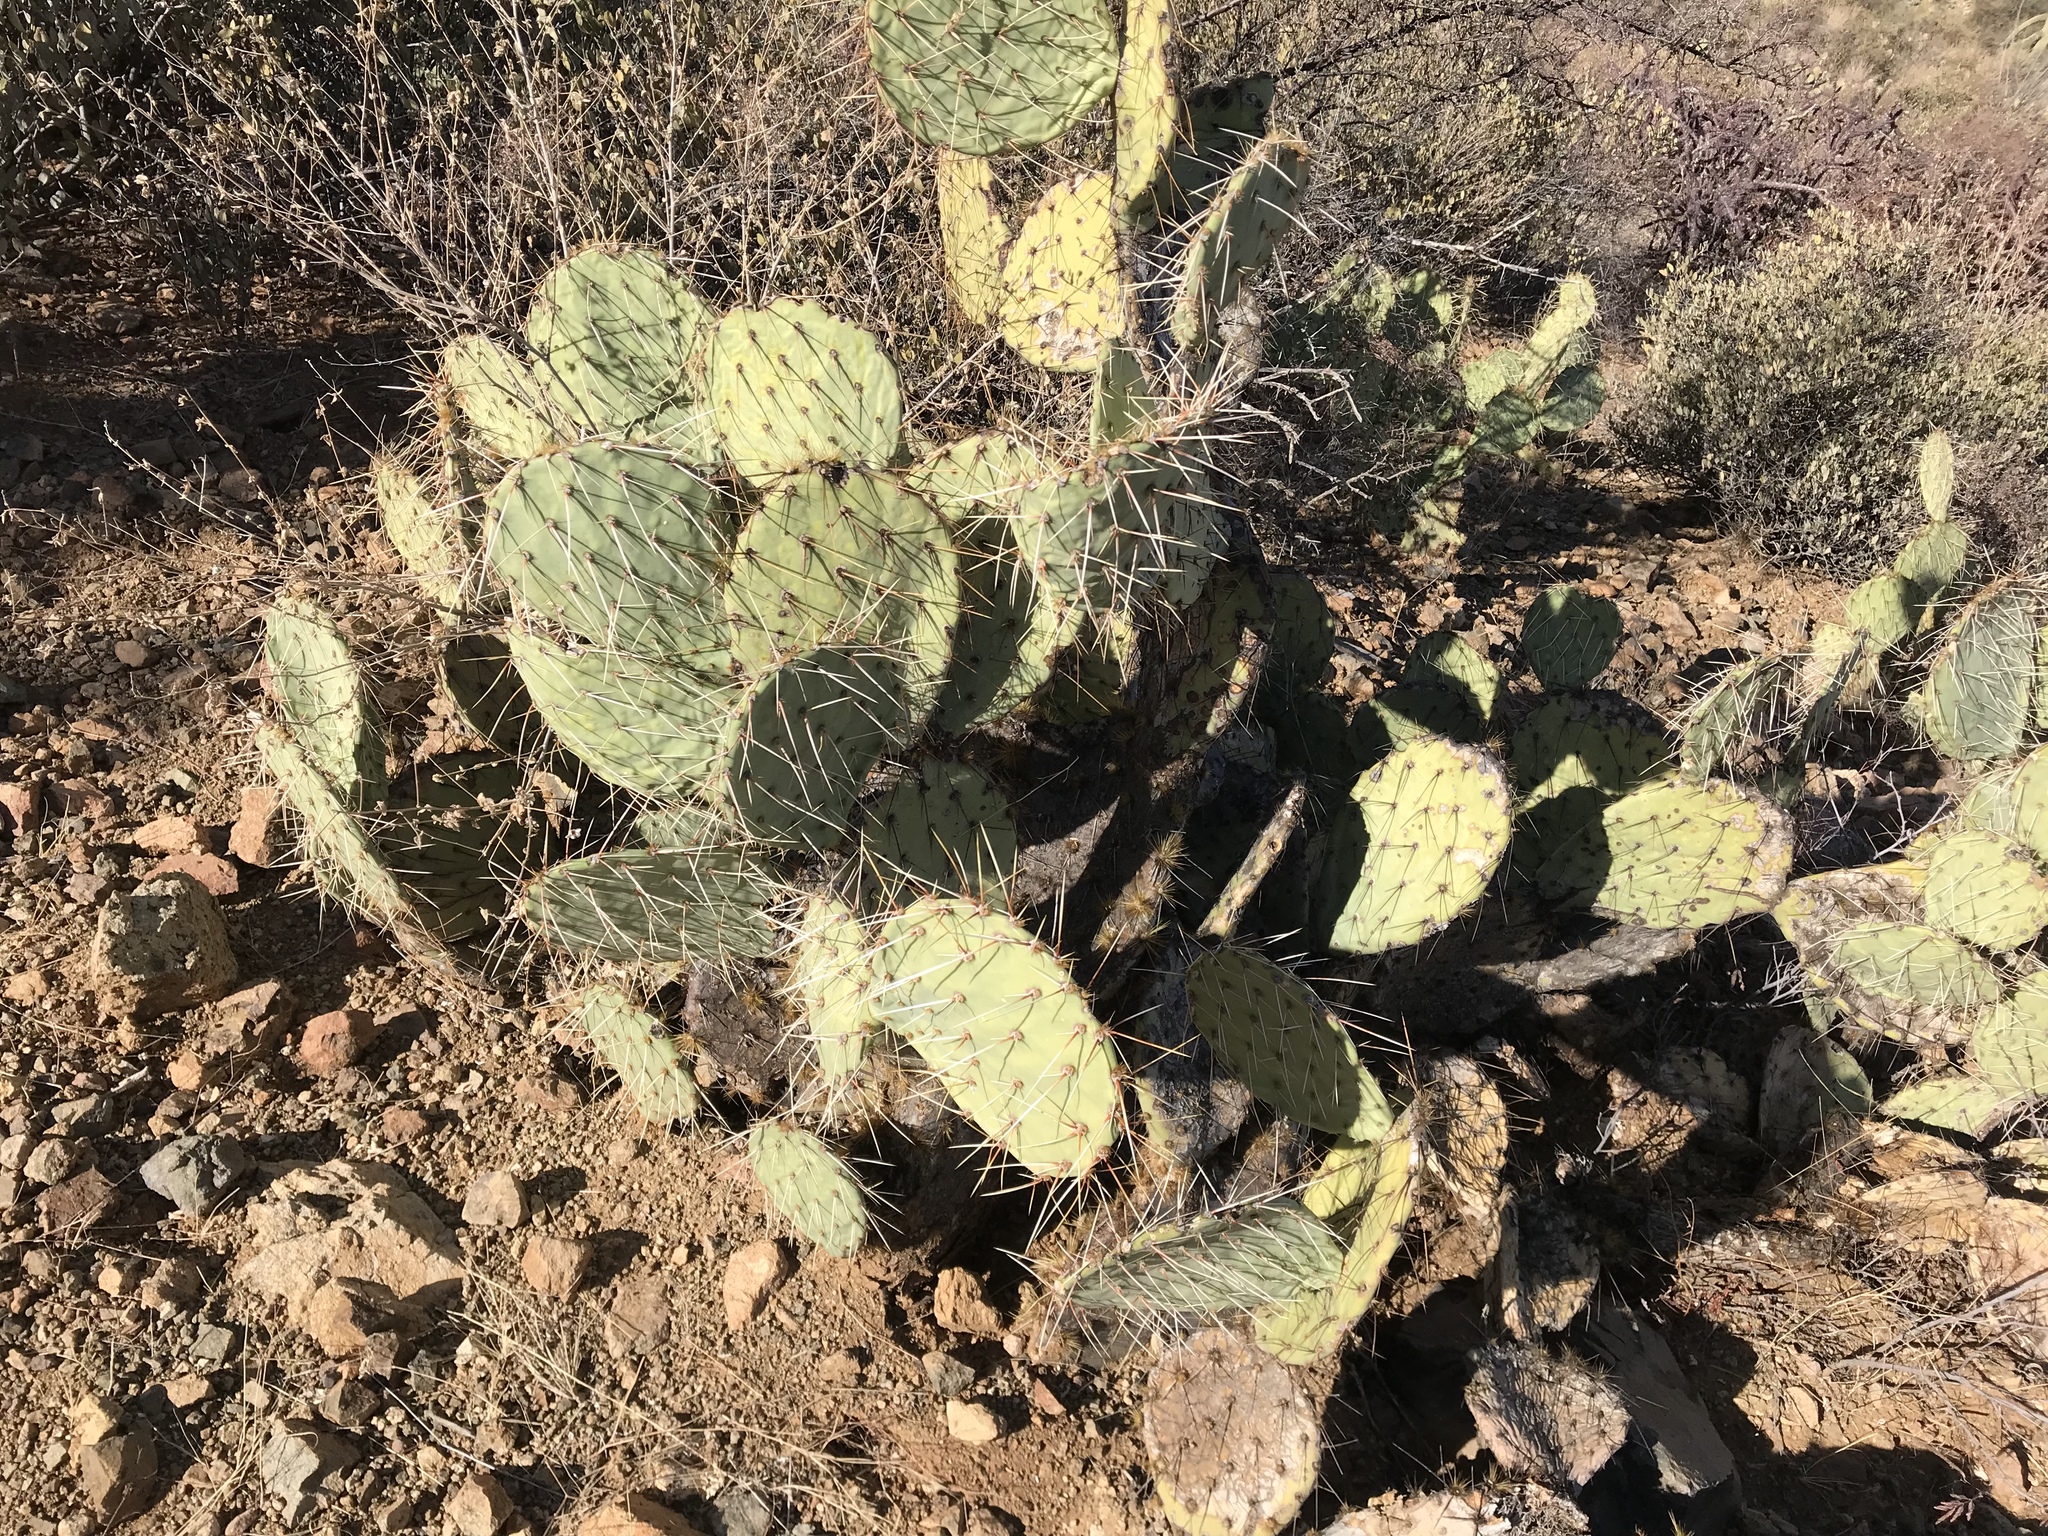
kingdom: Plantae
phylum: Tracheophyta
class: Magnoliopsida
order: Caryophyllales
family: Cactaceae
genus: Opuntia
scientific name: Opuntia engelmannii
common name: Cactus-apple
